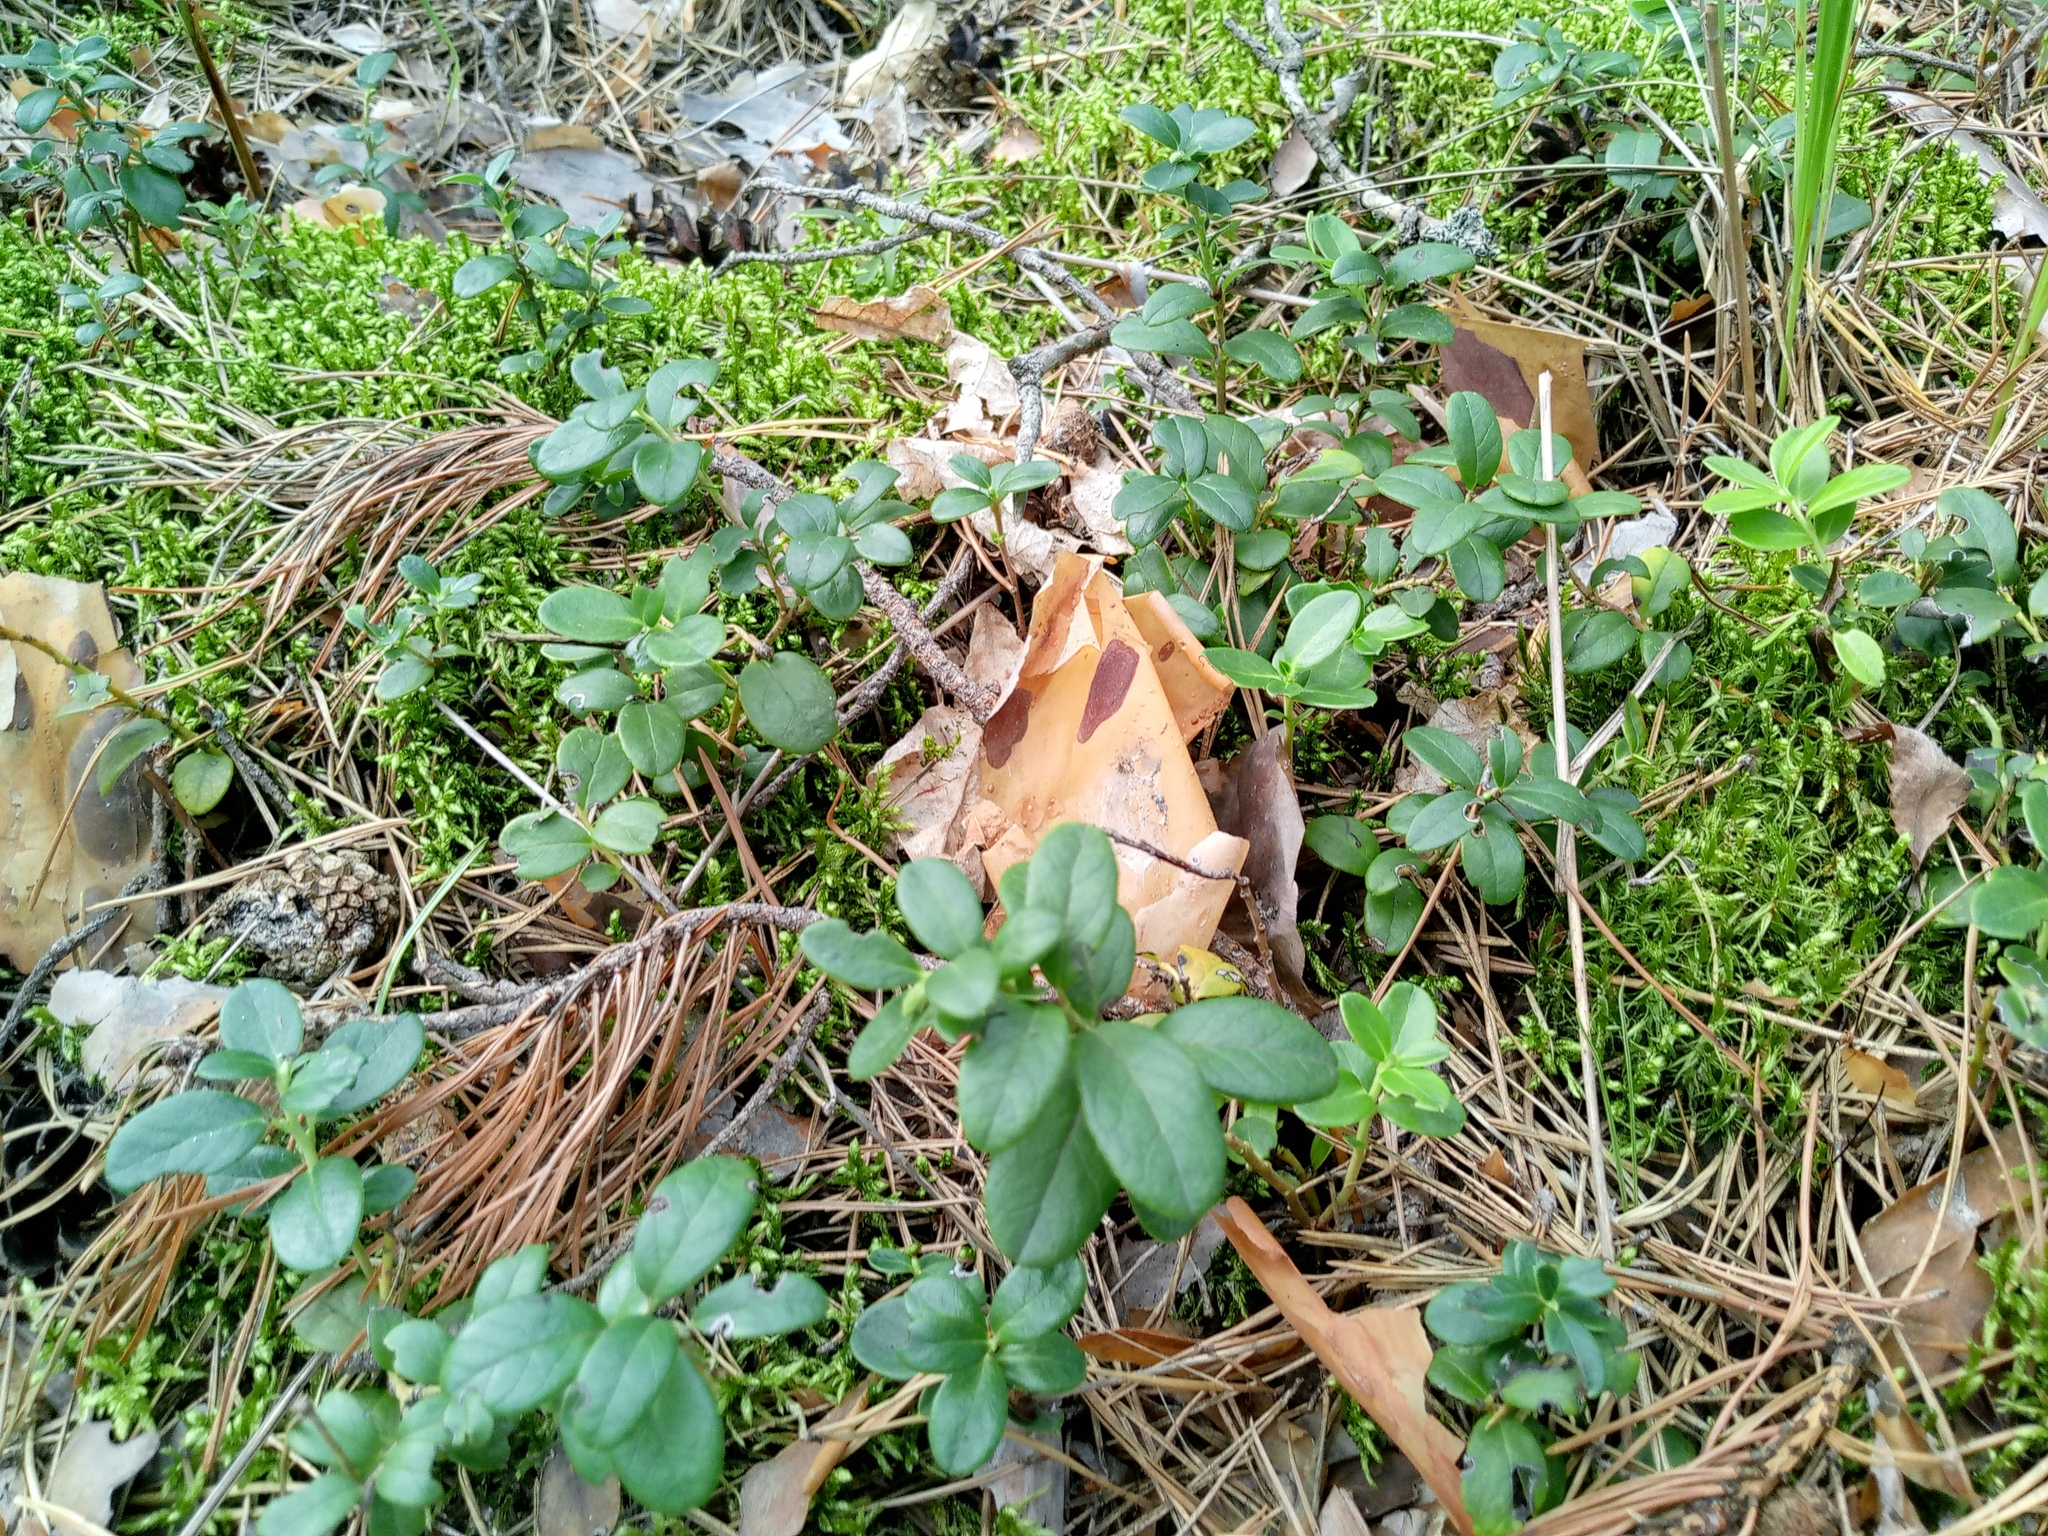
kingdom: Plantae
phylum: Tracheophyta
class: Magnoliopsida
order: Ericales
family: Ericaceae
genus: Vaccinium
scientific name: Vaccinium vitis-idaea
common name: Cowberry
